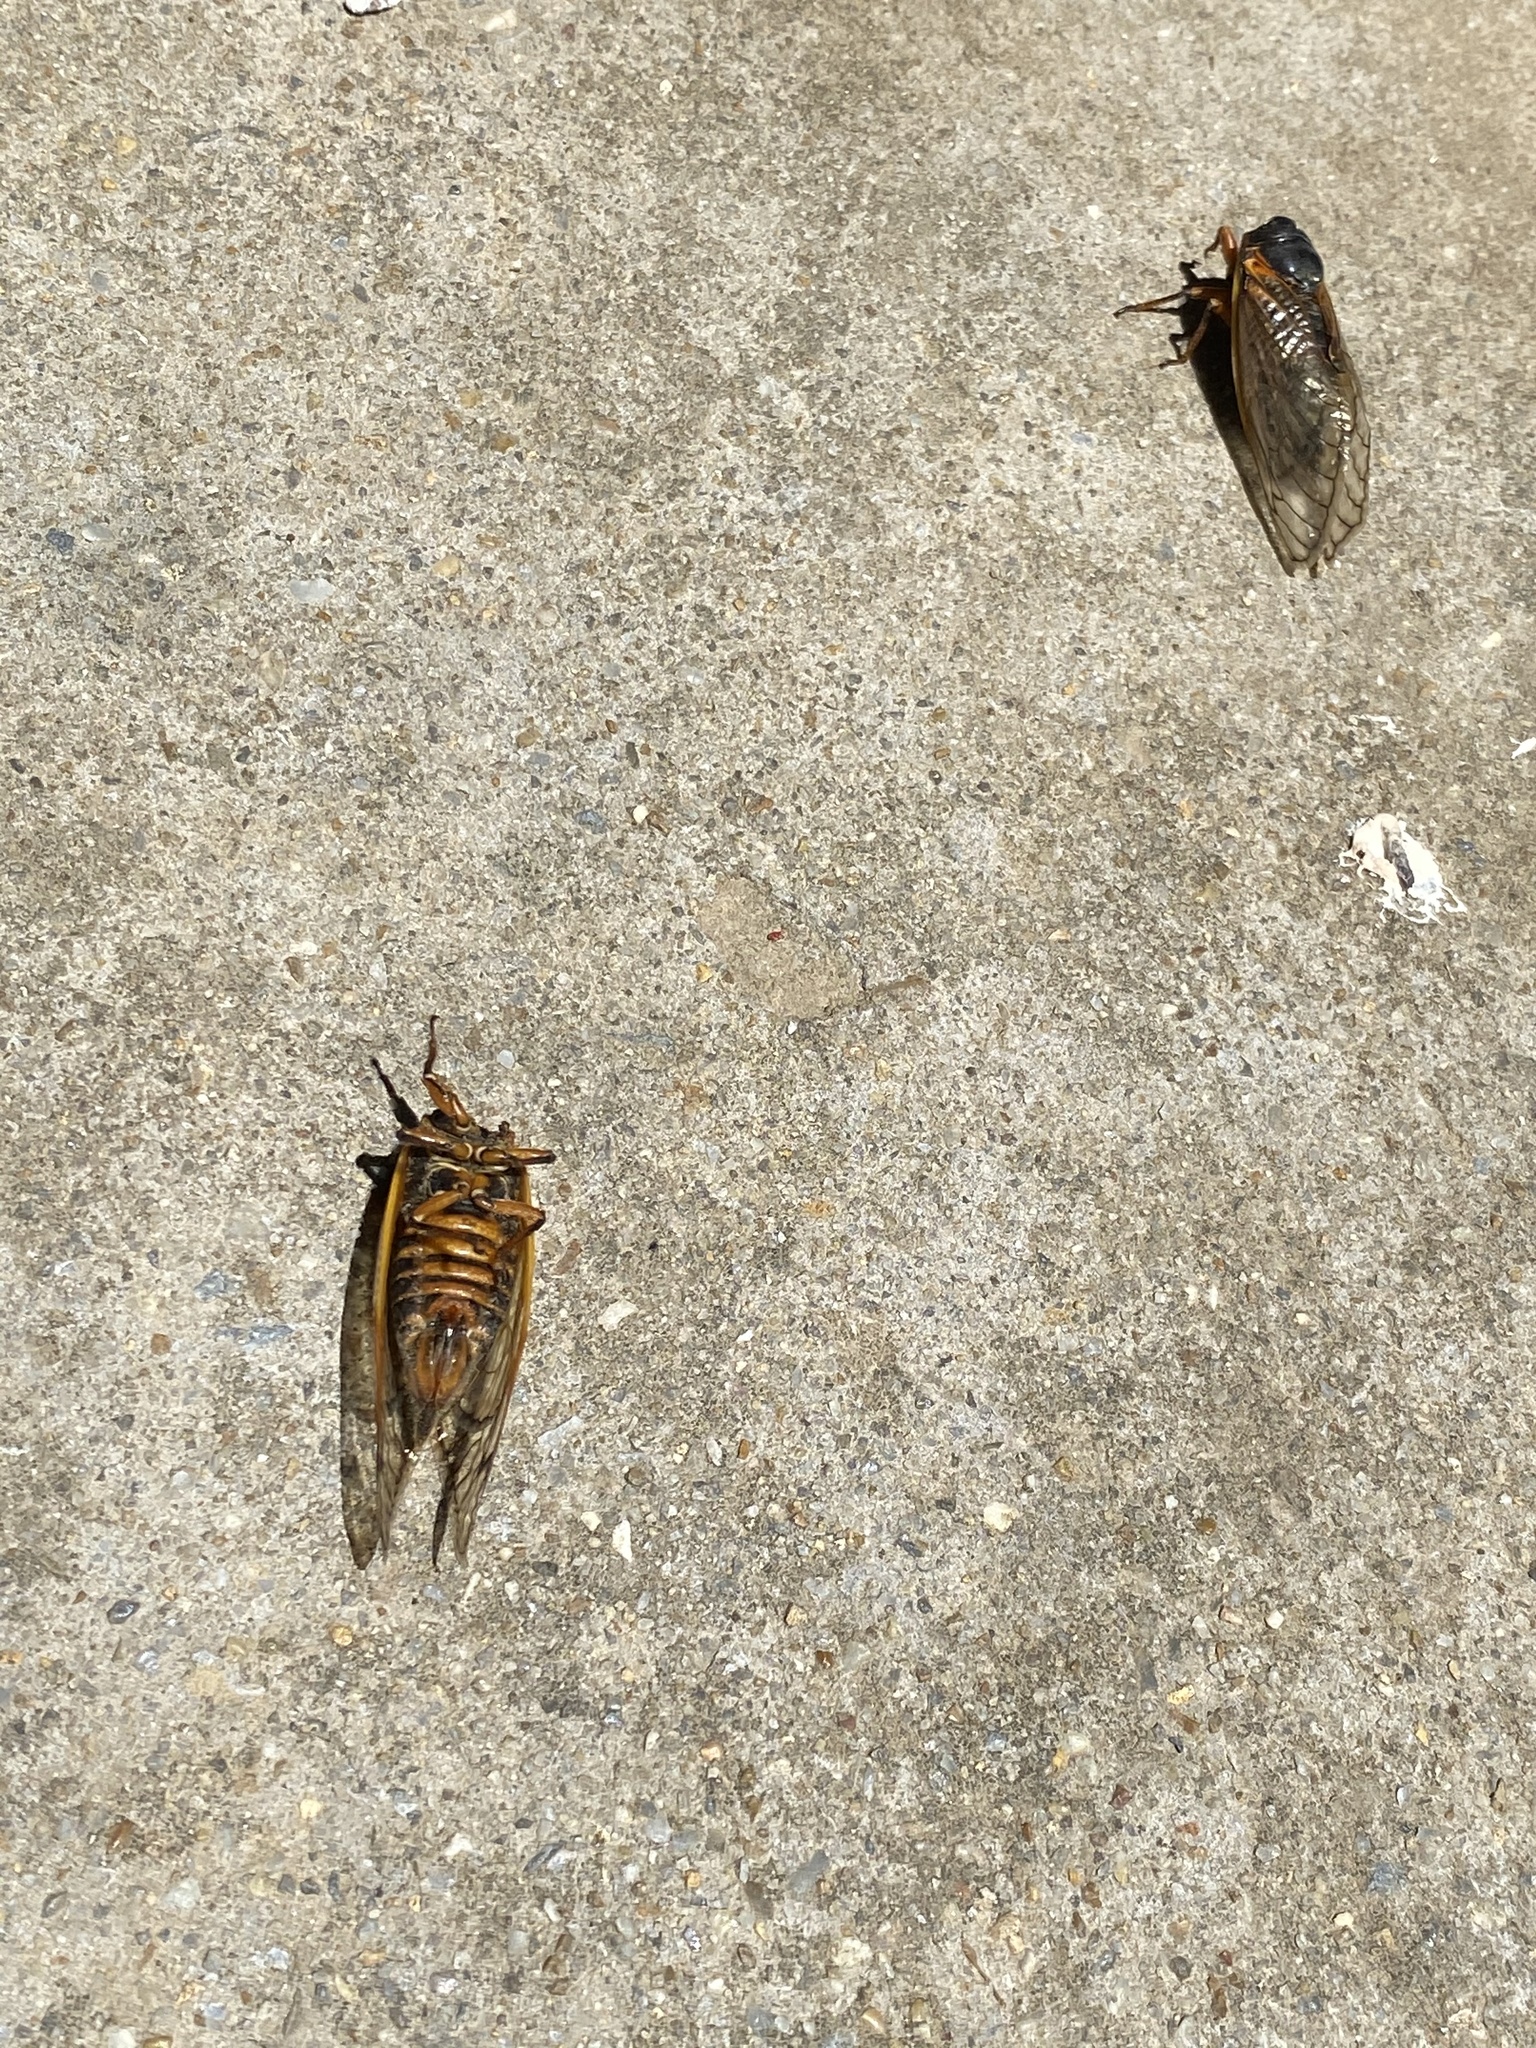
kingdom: Animalia
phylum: Arthropoda
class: Insecta
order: Hemiptera
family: Cicadidae
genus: Magicicada
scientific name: Magicicada septendecim
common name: Periodical cicada
